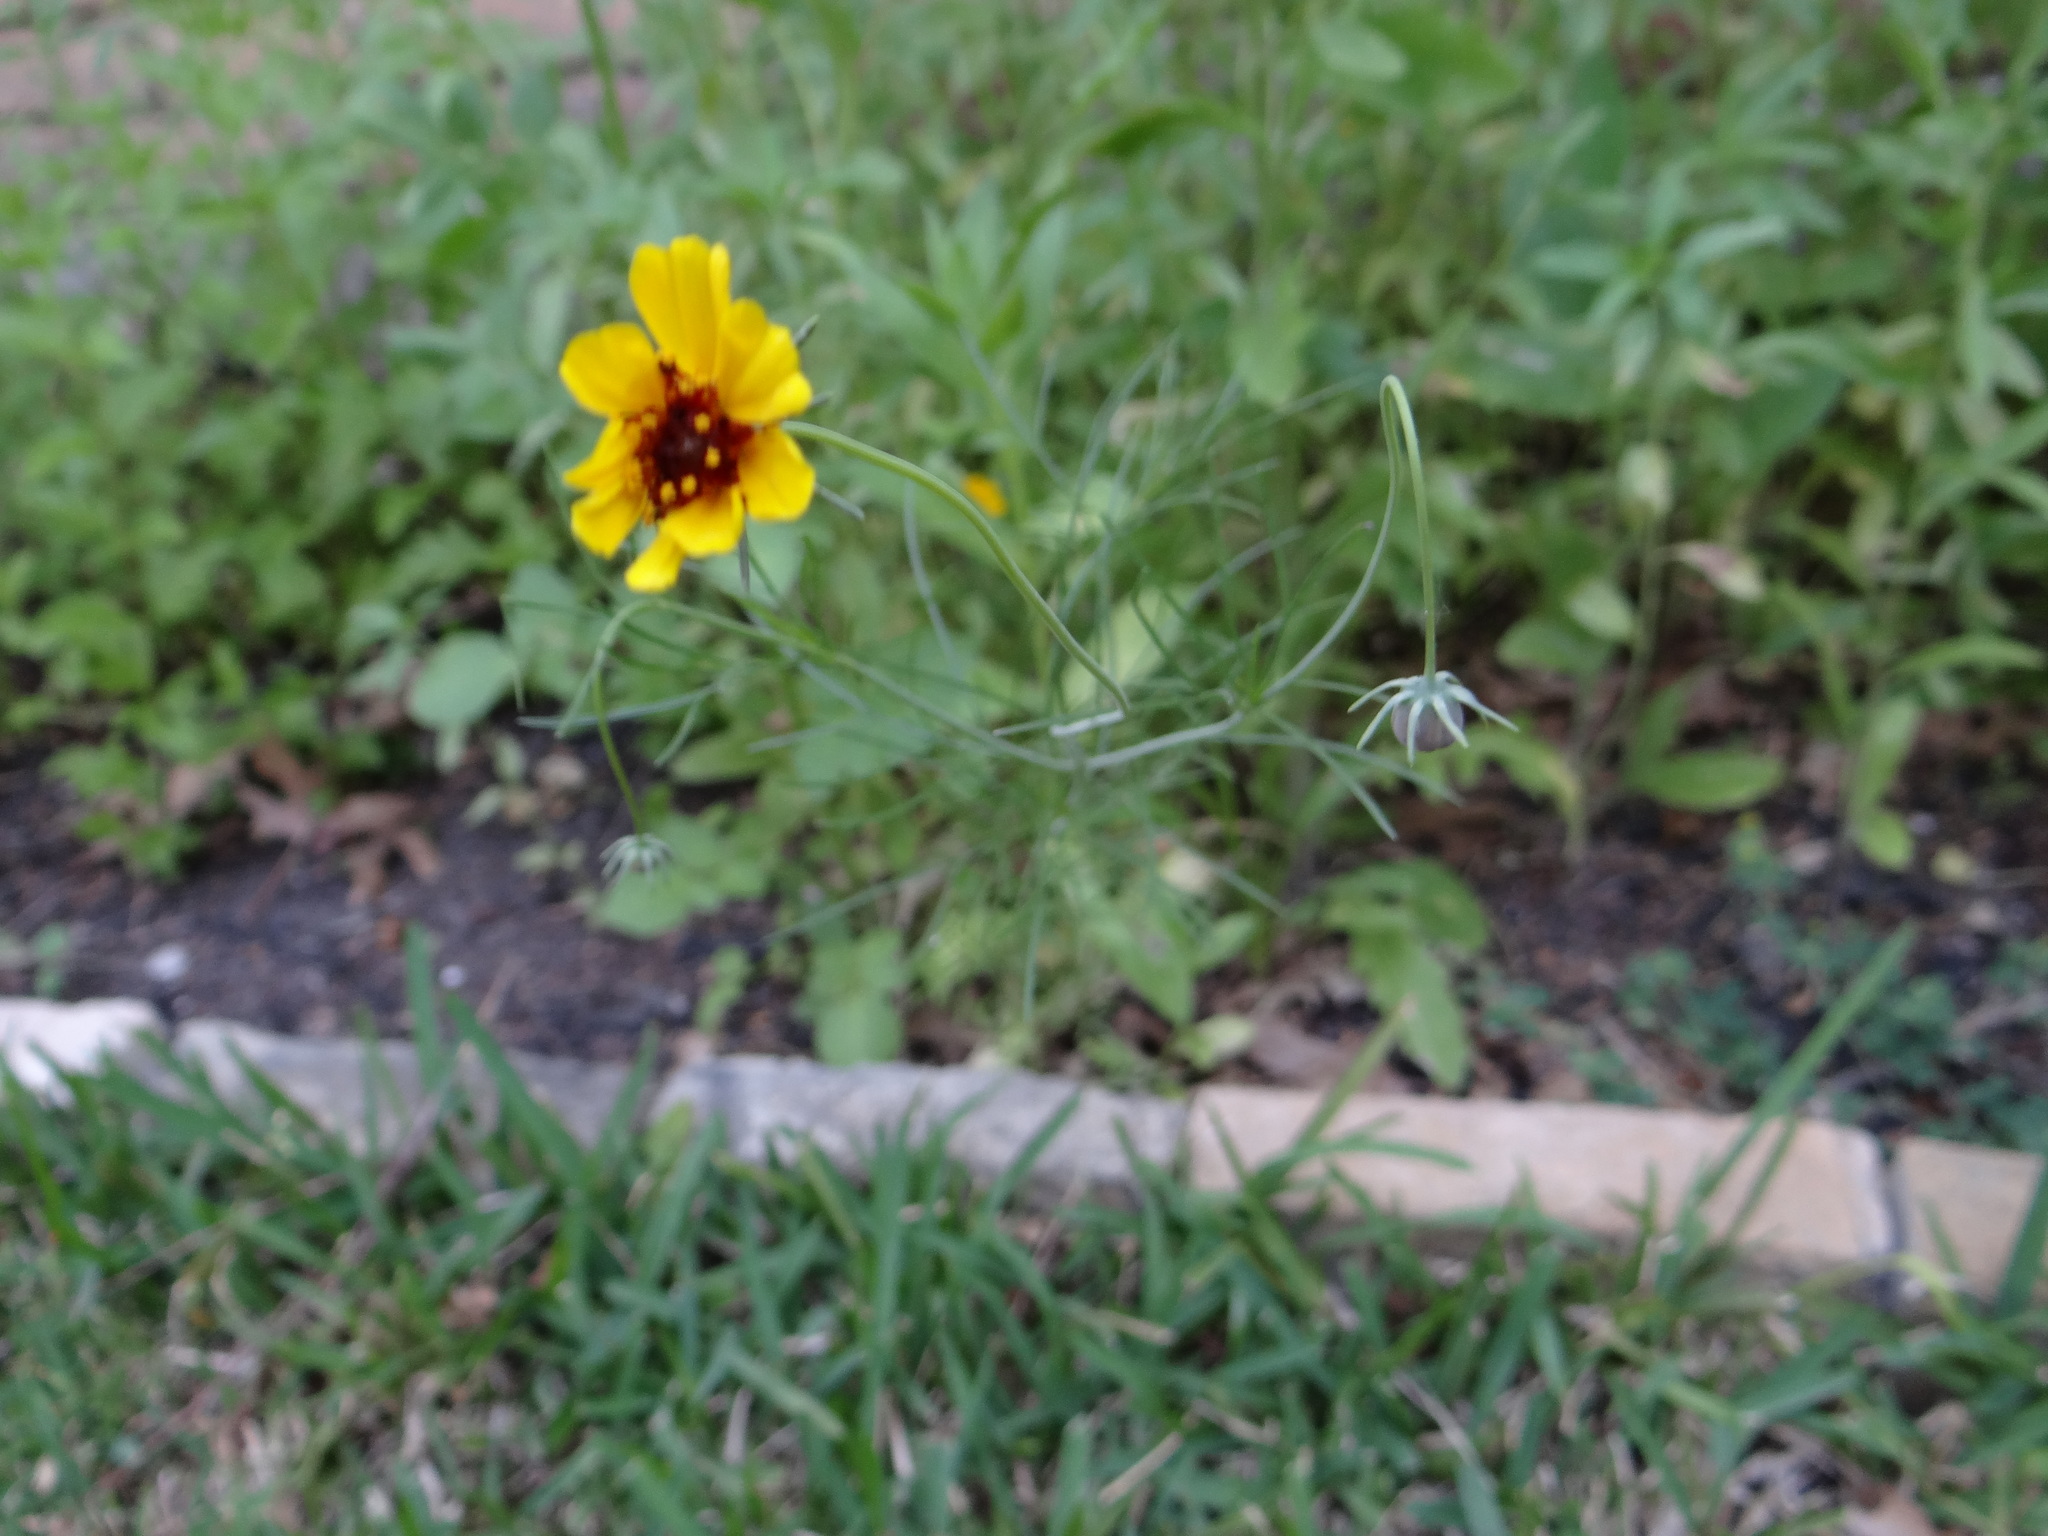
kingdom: Plantae
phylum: Tracheophyta
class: Magnoliopsida
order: Asterales
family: Asteraceae
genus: Thelesperma
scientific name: Thelesperma filifolium
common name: Stiff greenthread
